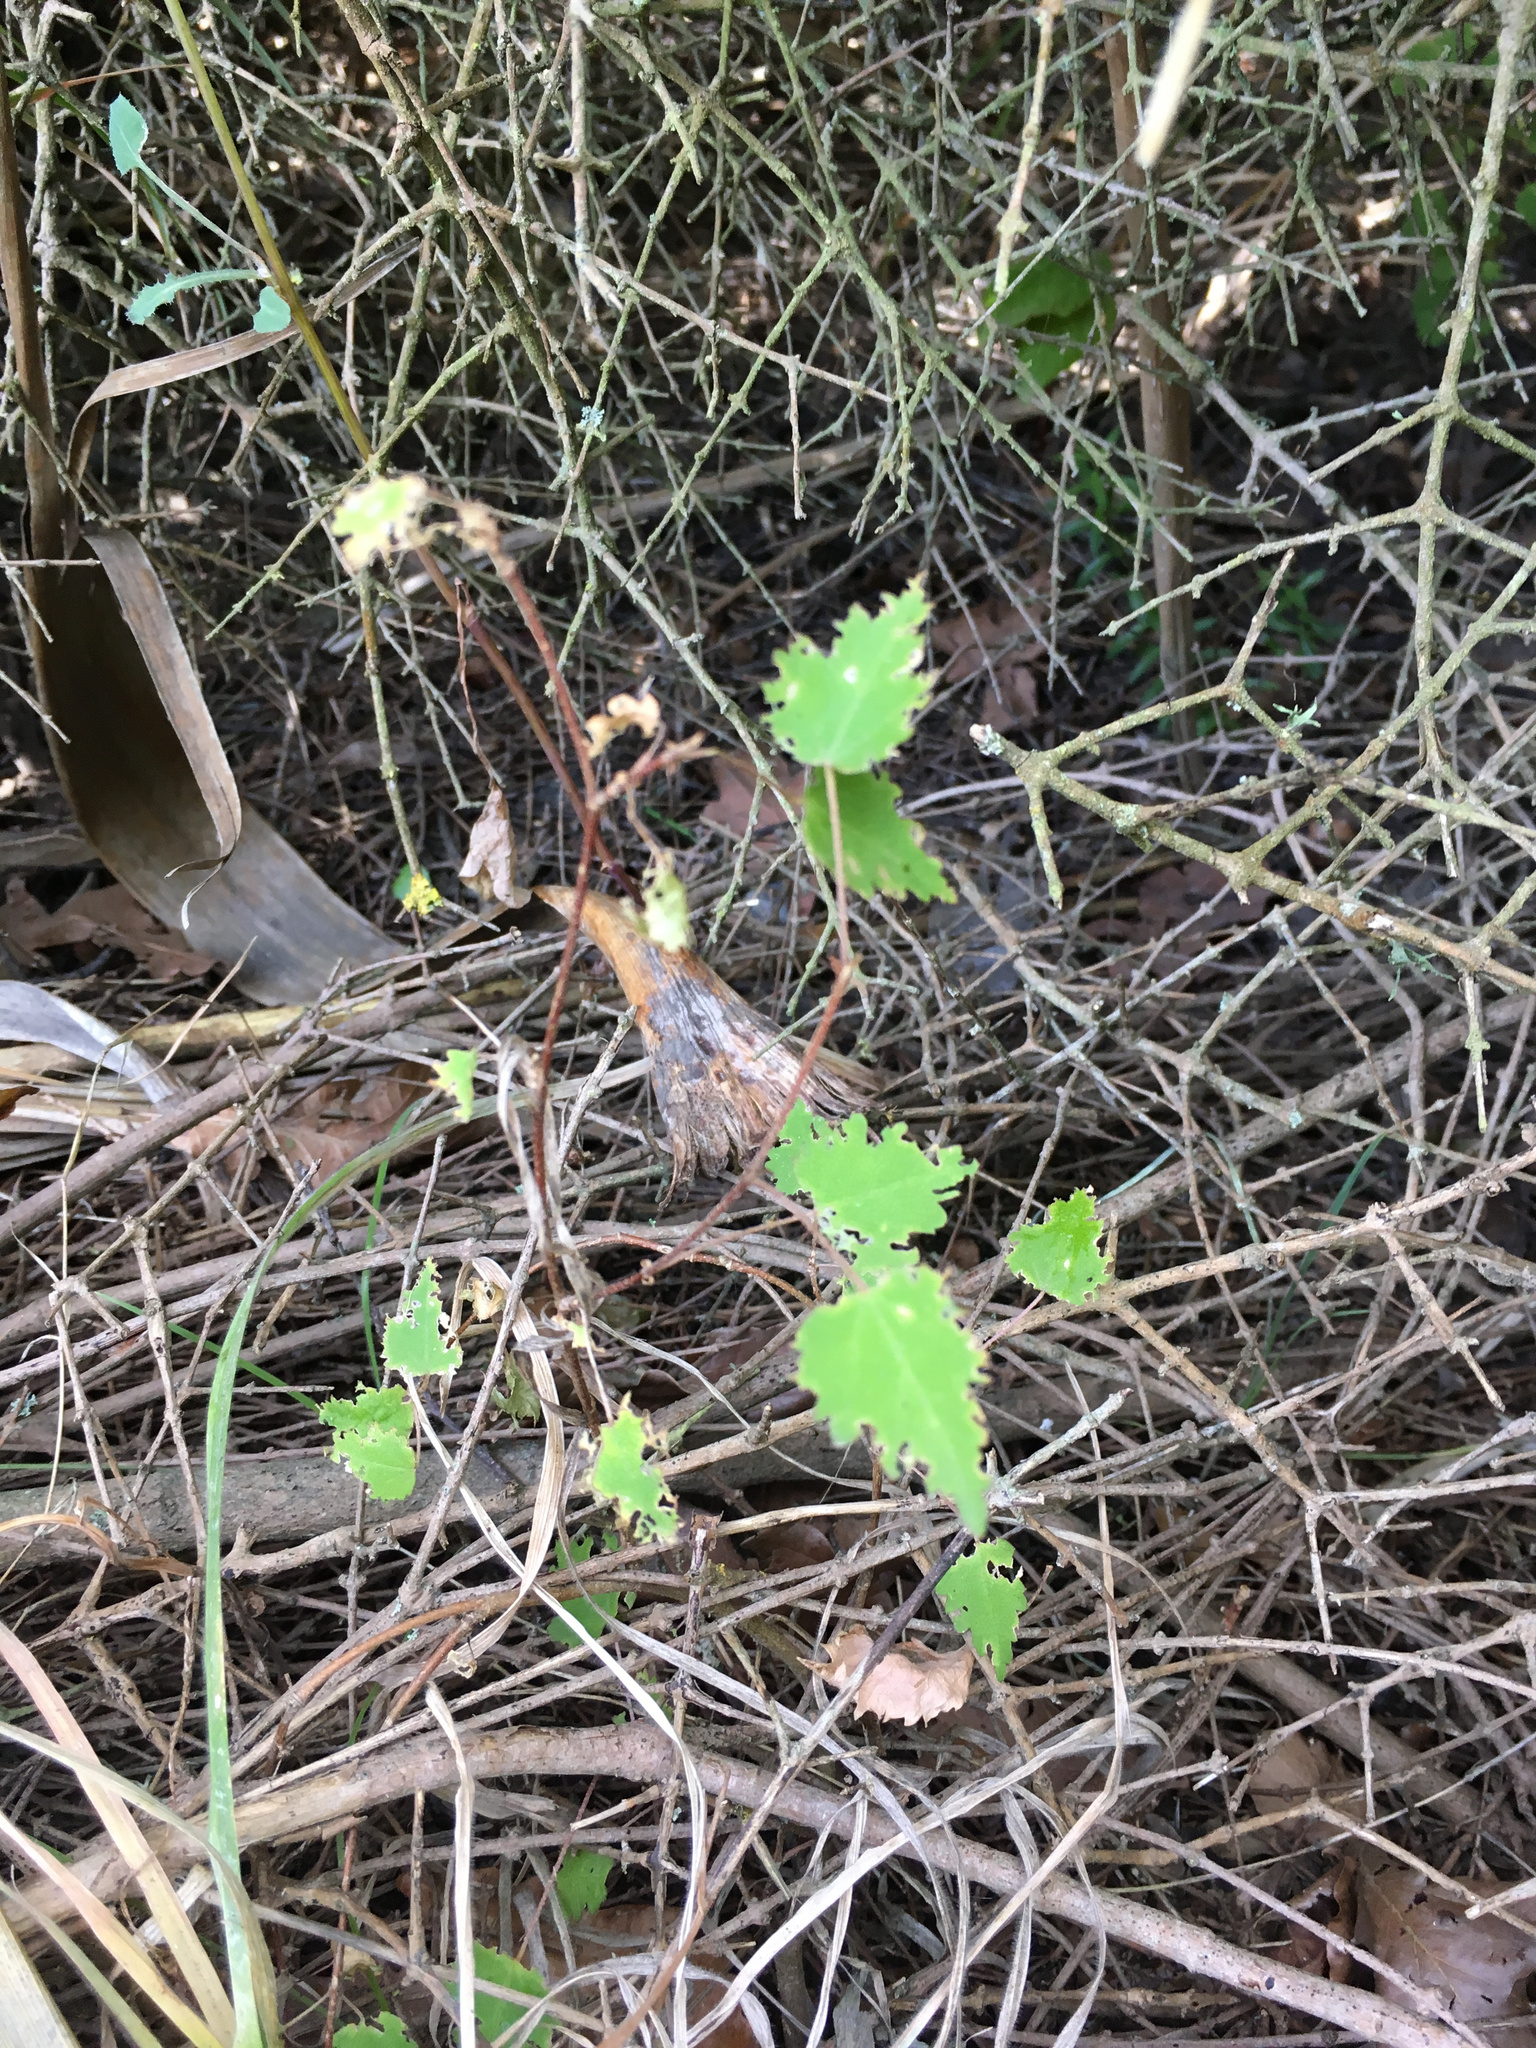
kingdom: Plantae
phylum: Tracheophyta
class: Magnoliopsida
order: Malvales
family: Malvaceae
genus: Plagianthus
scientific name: Plagianthus regius
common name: Manatu
